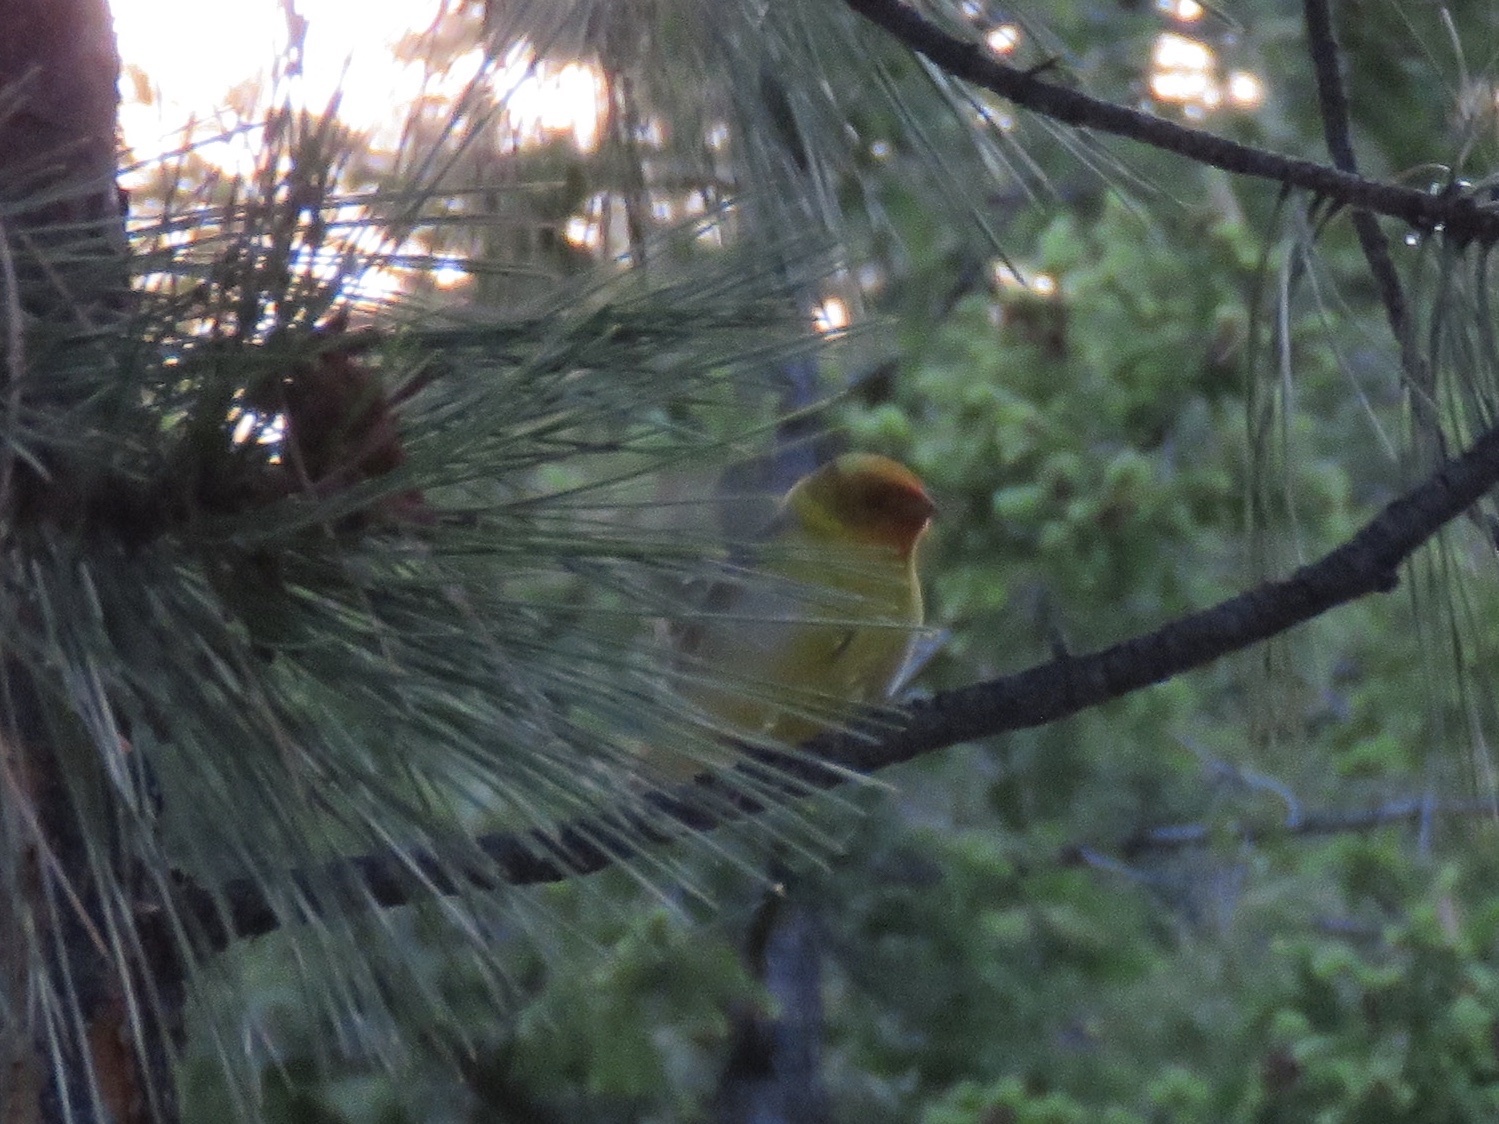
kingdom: Animalia
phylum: Chordata
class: Aves
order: Passeriformes
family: Cardinalidae
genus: Piranga
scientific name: Piranga ludoviciana
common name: Western tanager
